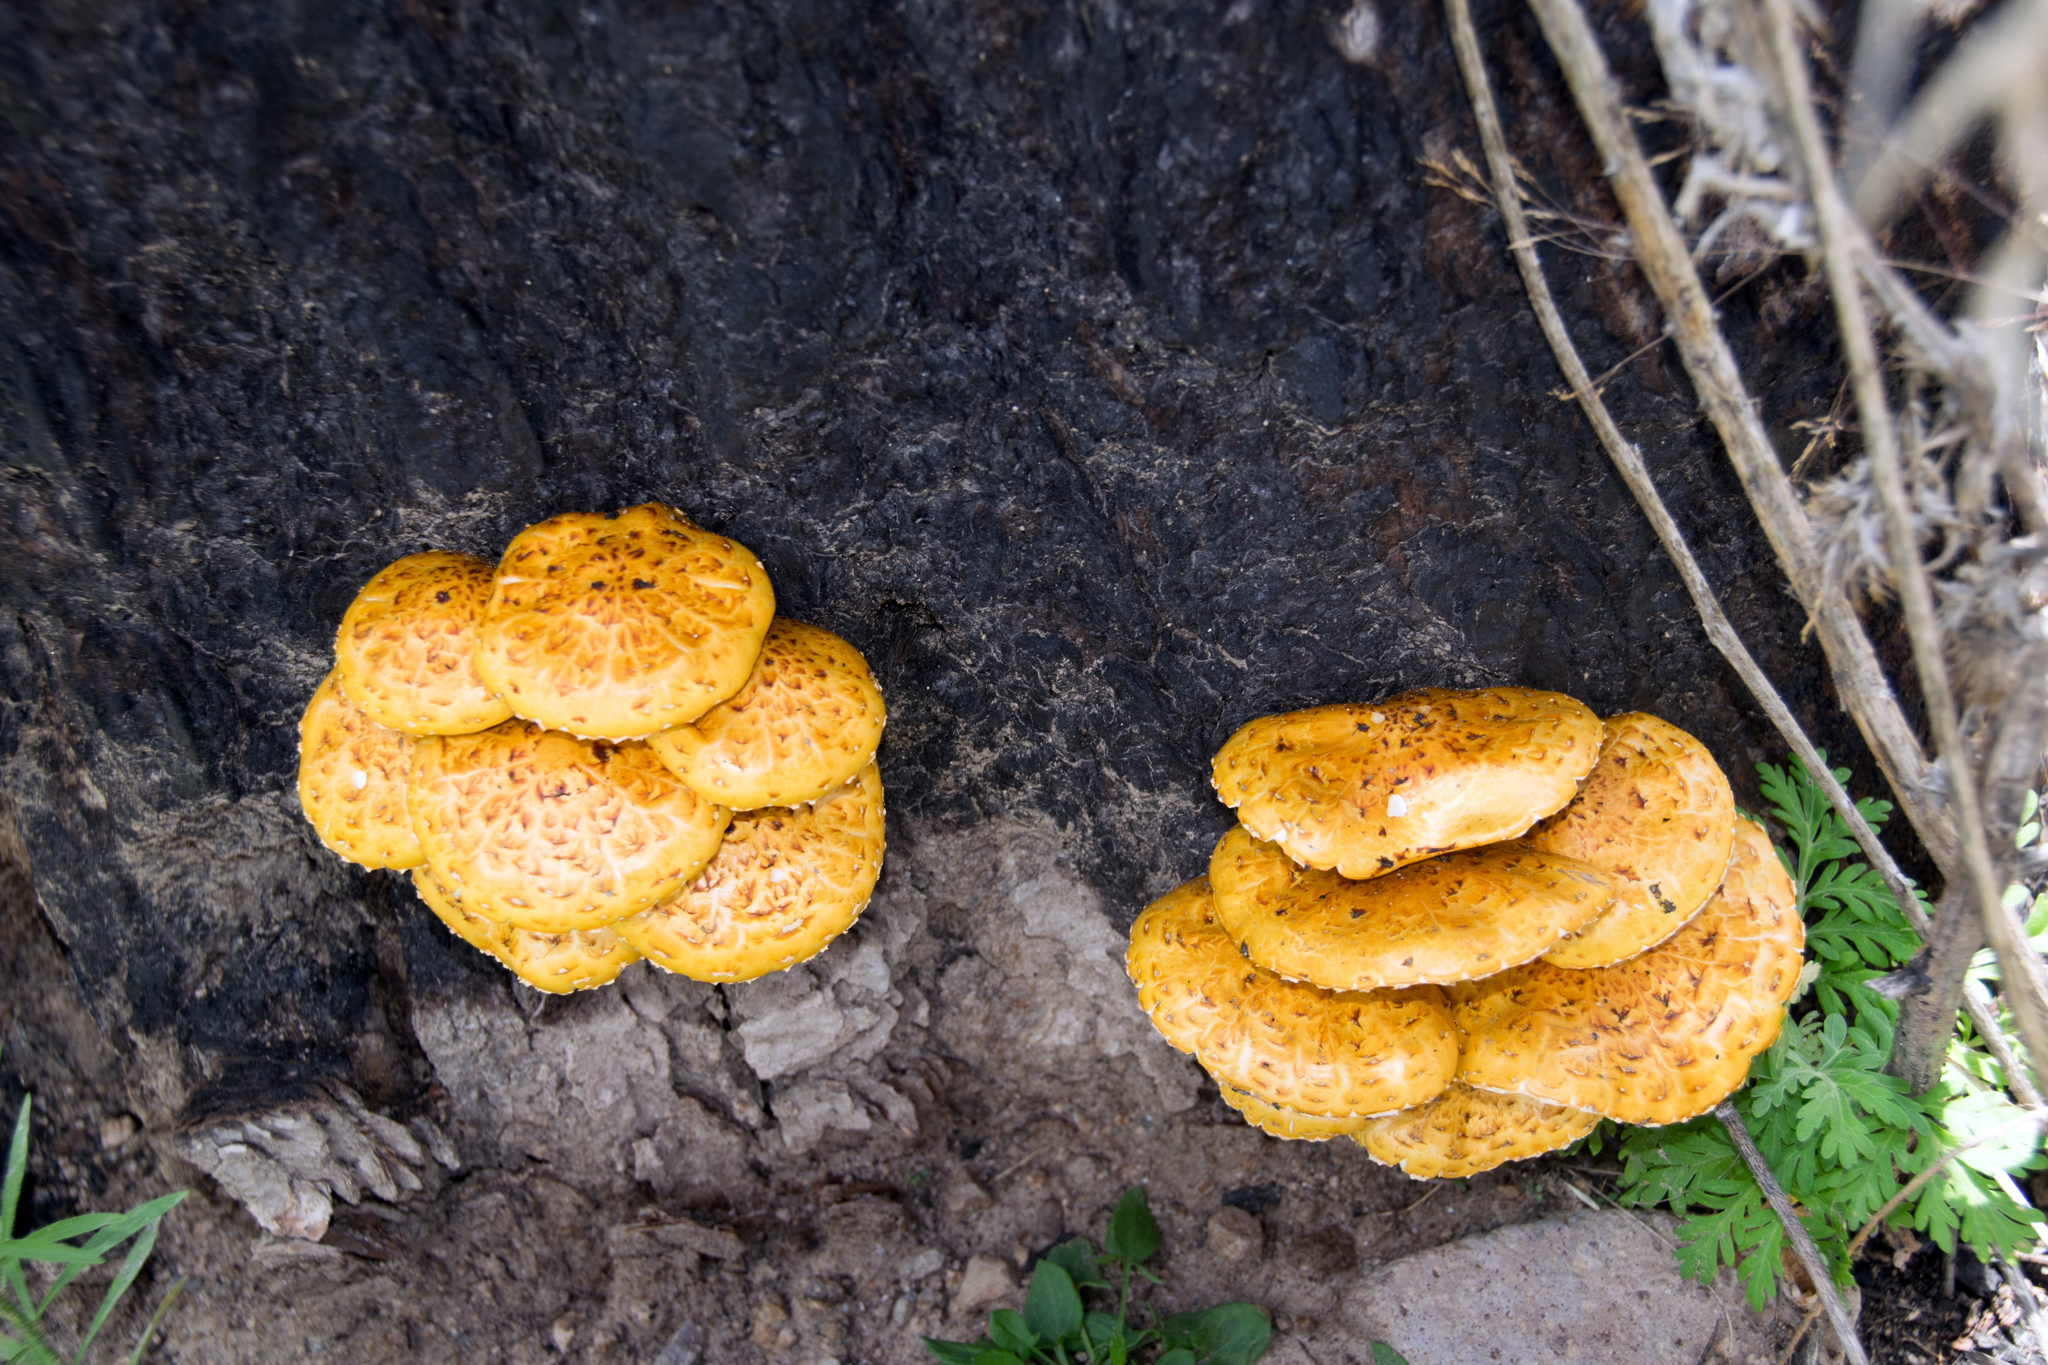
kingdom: Fungi
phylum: Basidiomycota
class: Agaricomycetes
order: Agaricales
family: Strophariaceae
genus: Pholiota
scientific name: Pholiota aurivella
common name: Golden scalycap
